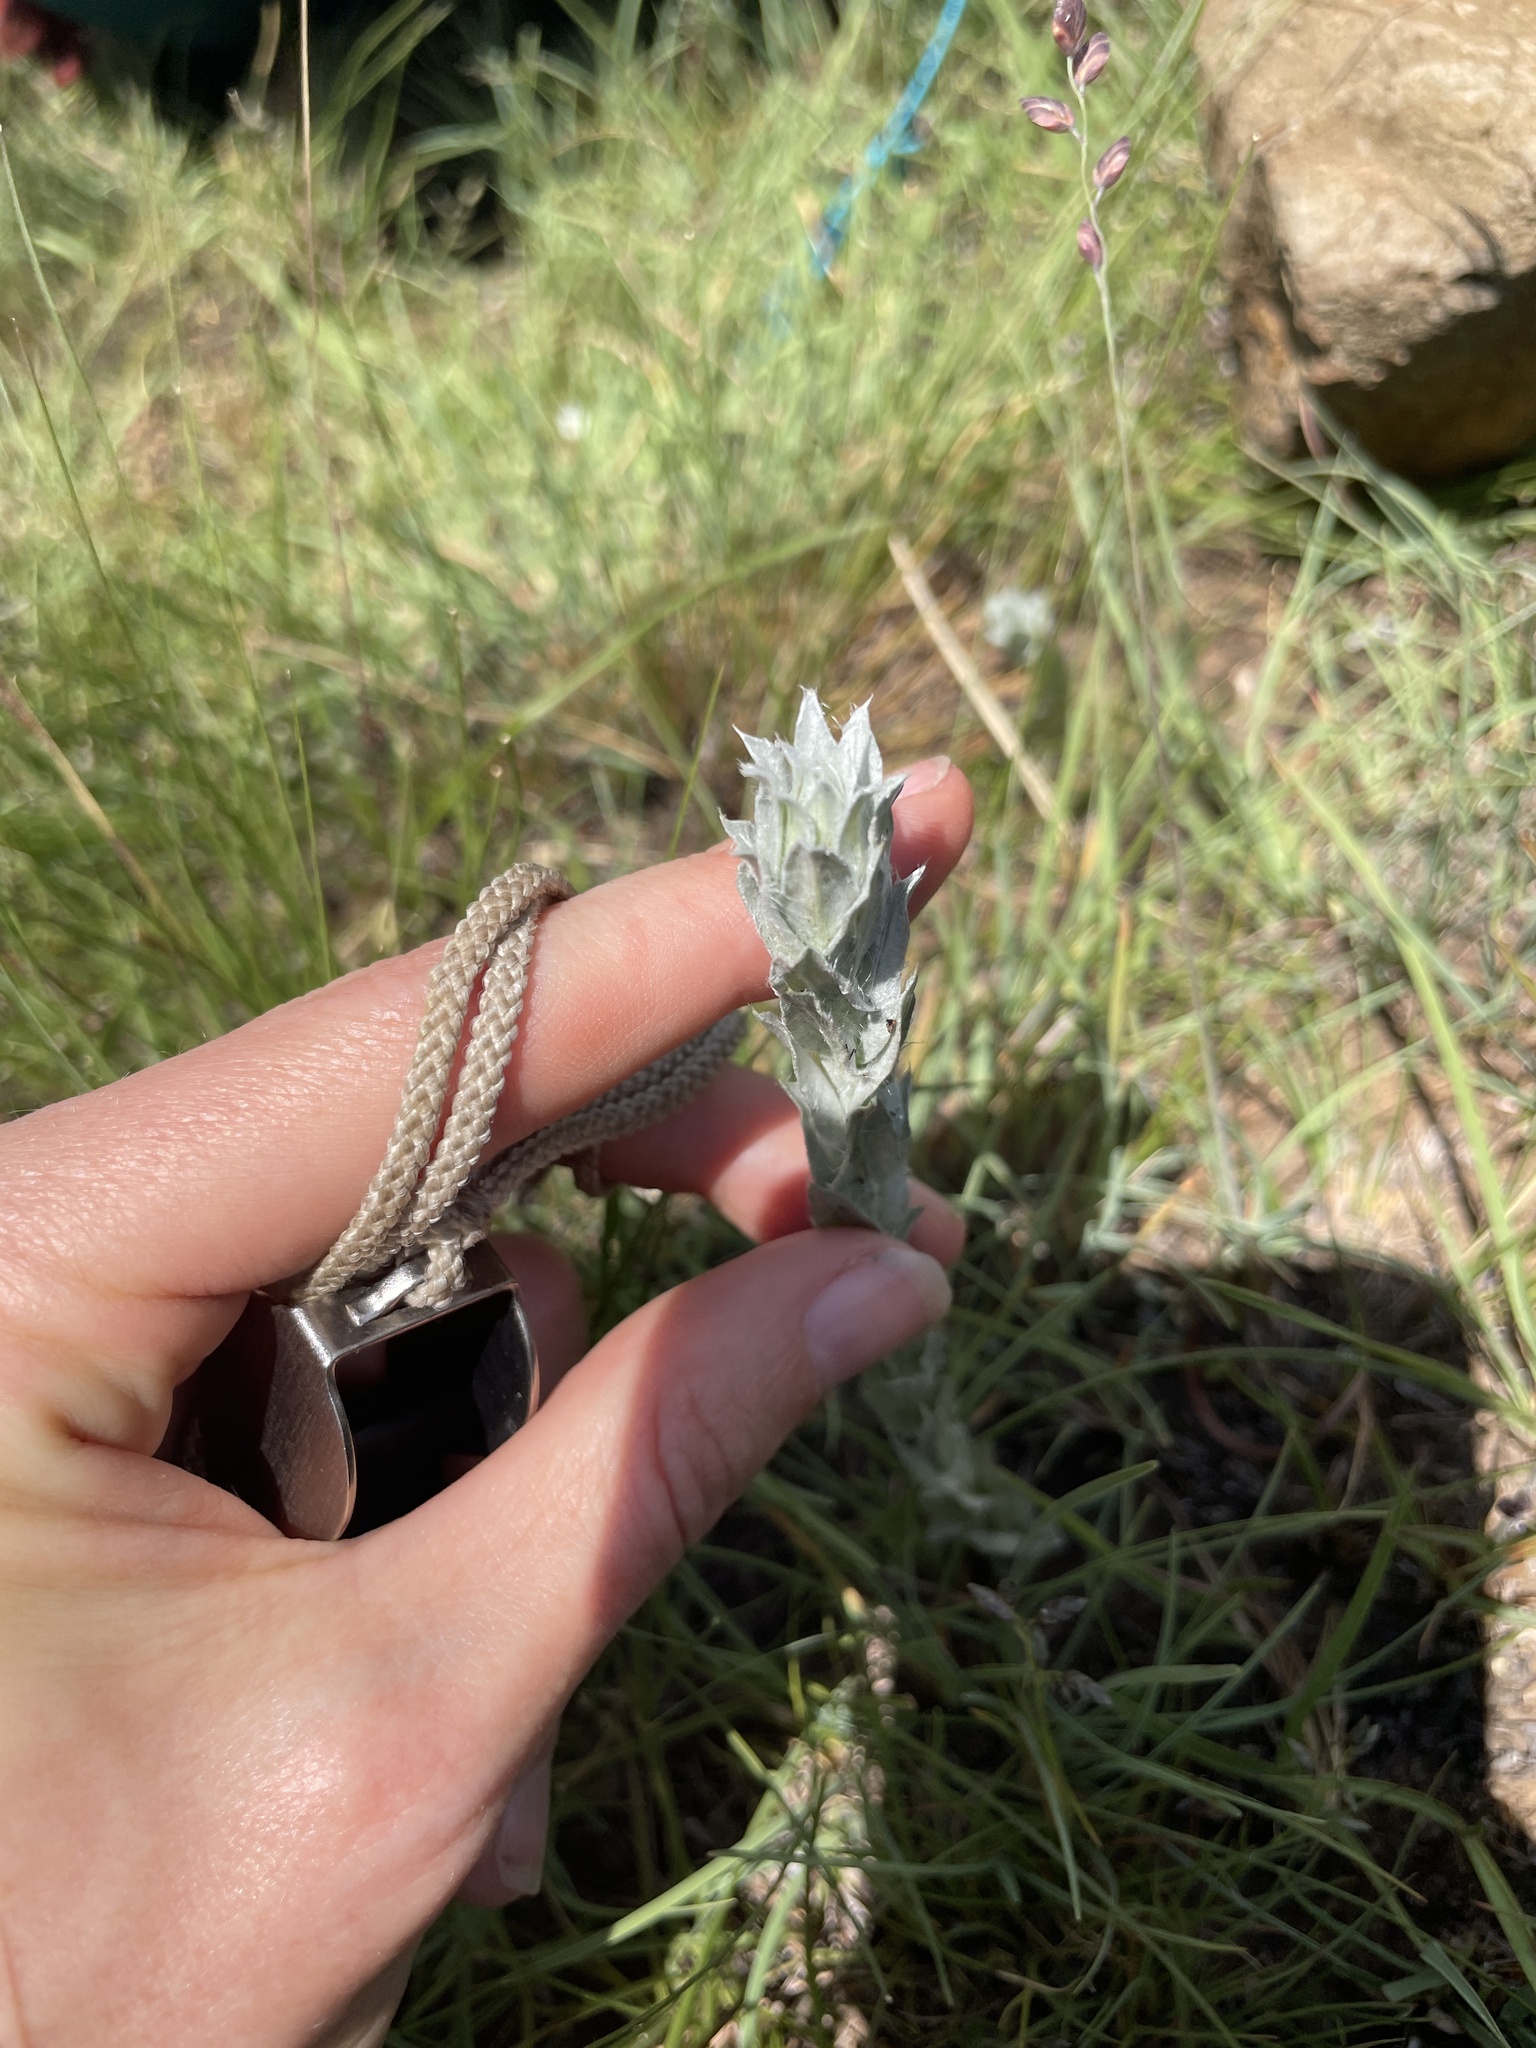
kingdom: Plantae
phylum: Tracheophyta
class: Magnoliopsida
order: Asterales
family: Asteraceae
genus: Helichrysum
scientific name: Helichrysum glomeratum
